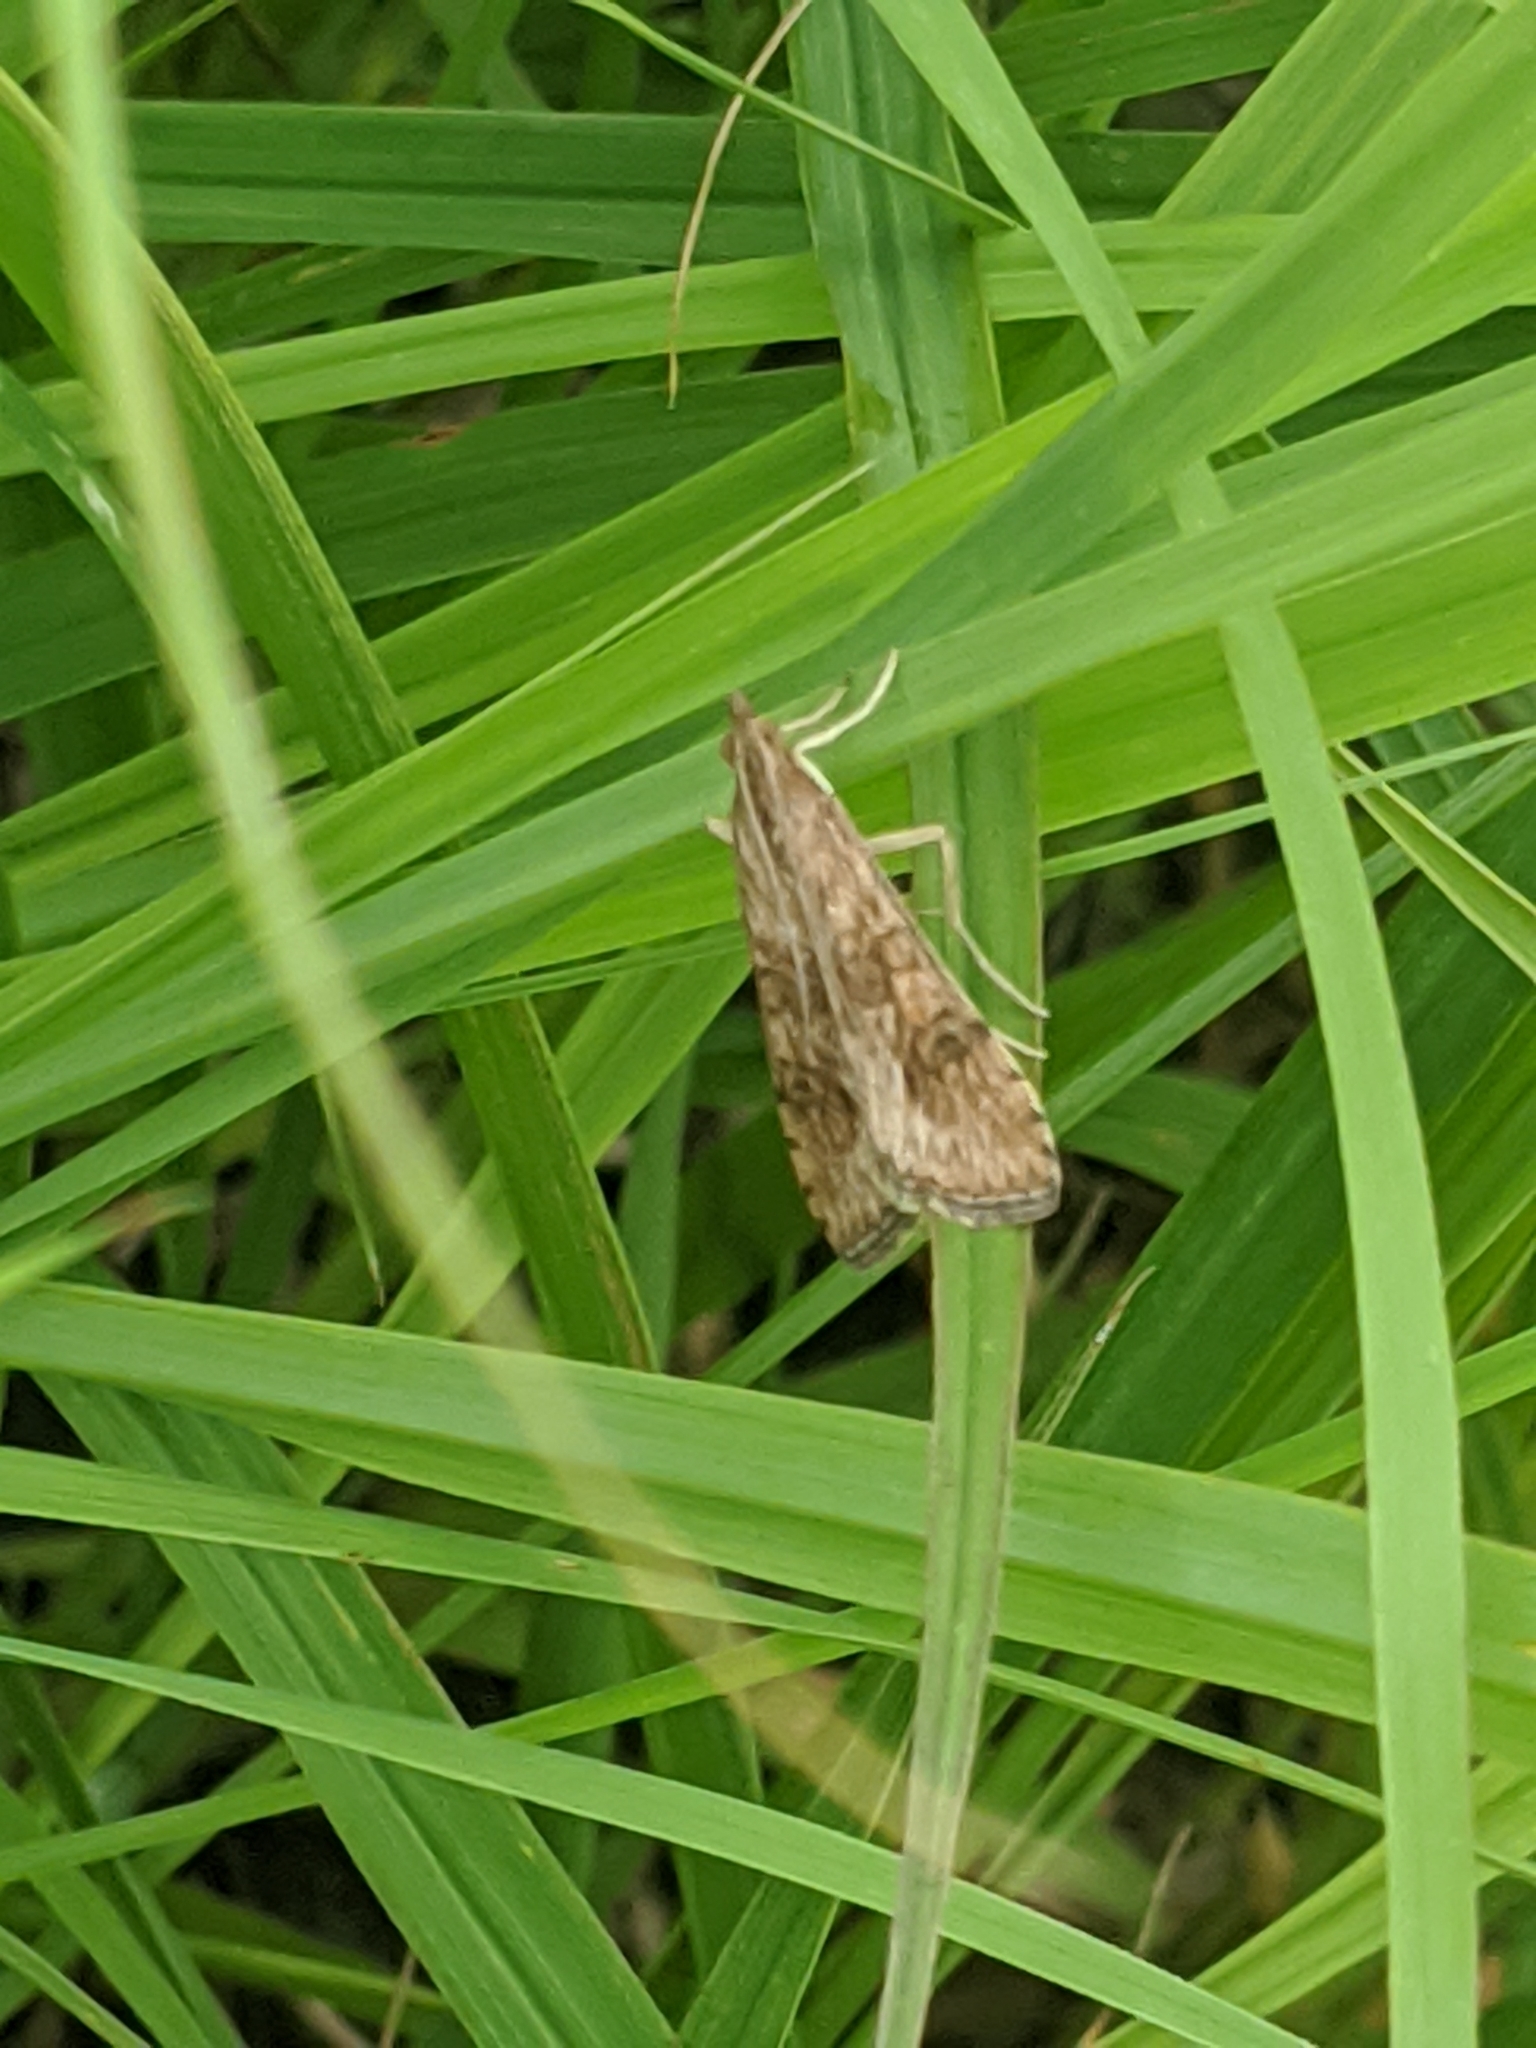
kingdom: Animalia
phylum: Arthropoda
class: Insecta
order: Lepidoptera
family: Crambidae
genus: Nomophila
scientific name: Nomophila nearctica
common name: American rush veneer
